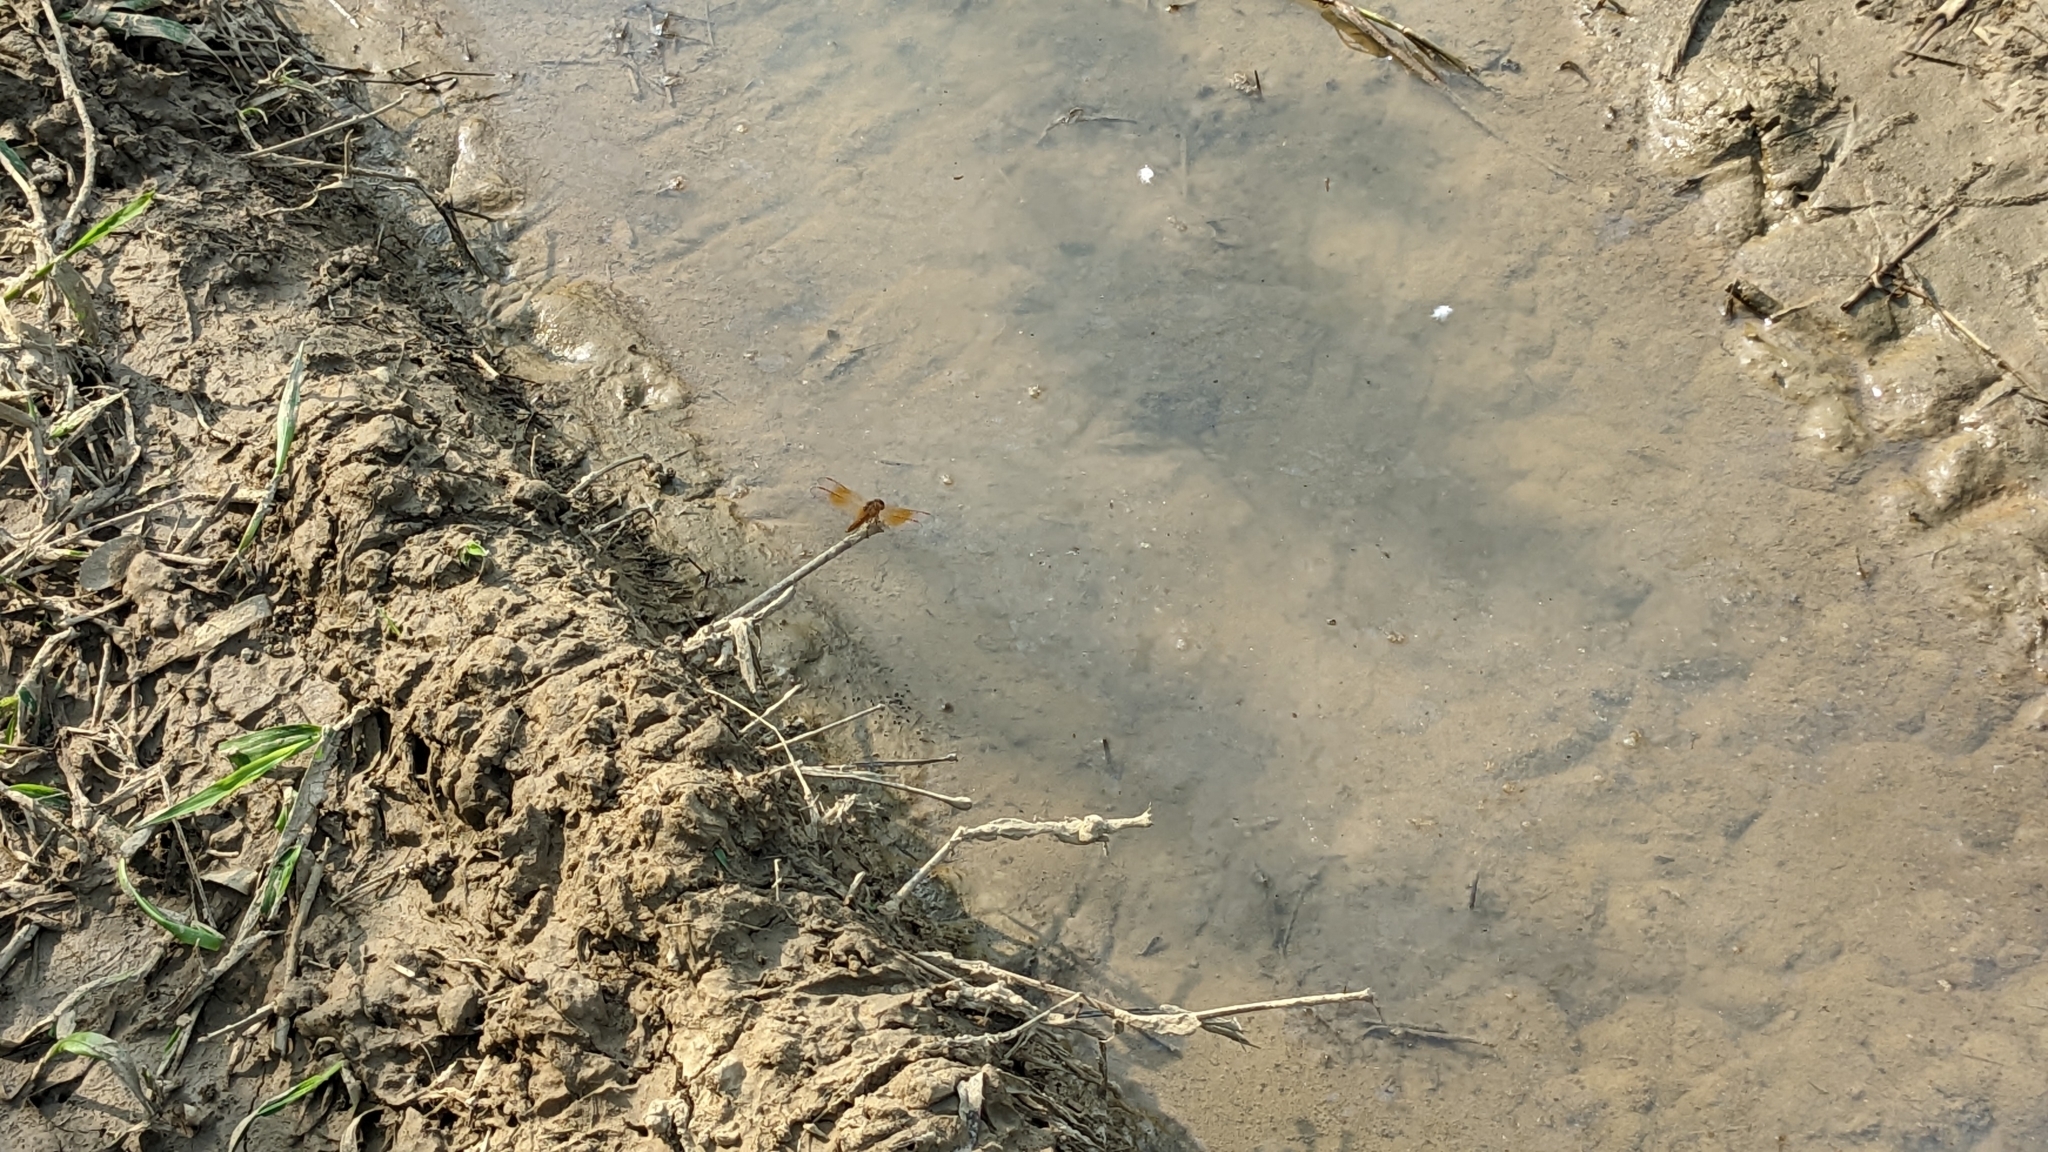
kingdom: Animalia
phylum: Arthropoda
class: Insecta
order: Odonata
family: Libellulidae
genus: Brachythemis
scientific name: Brachythemis contaminata
